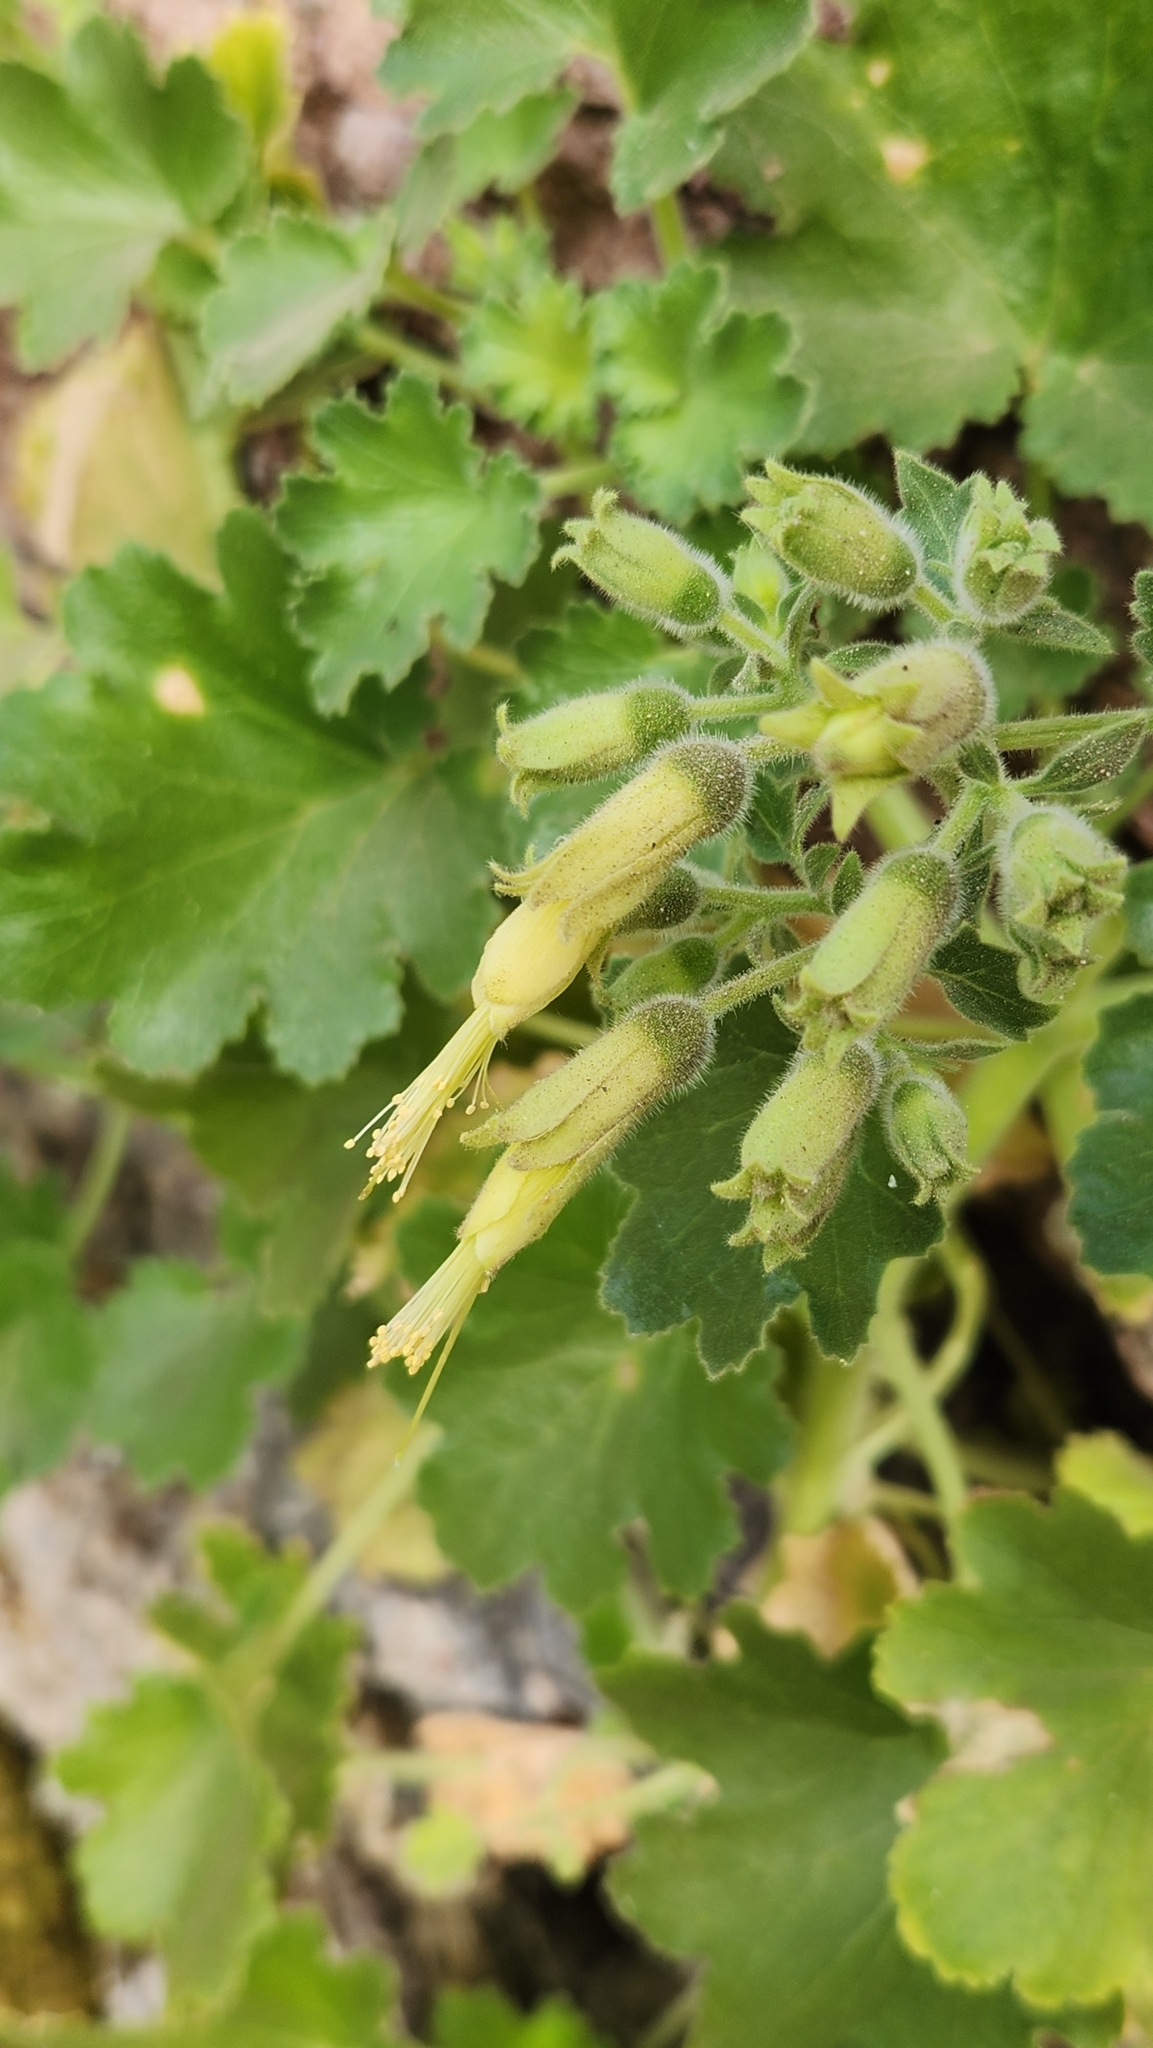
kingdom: Plantae
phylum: Tracheophyta
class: Magnoliopsida
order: Cornales
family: Loasaceae
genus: Eucnide
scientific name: Eucnide cordata
